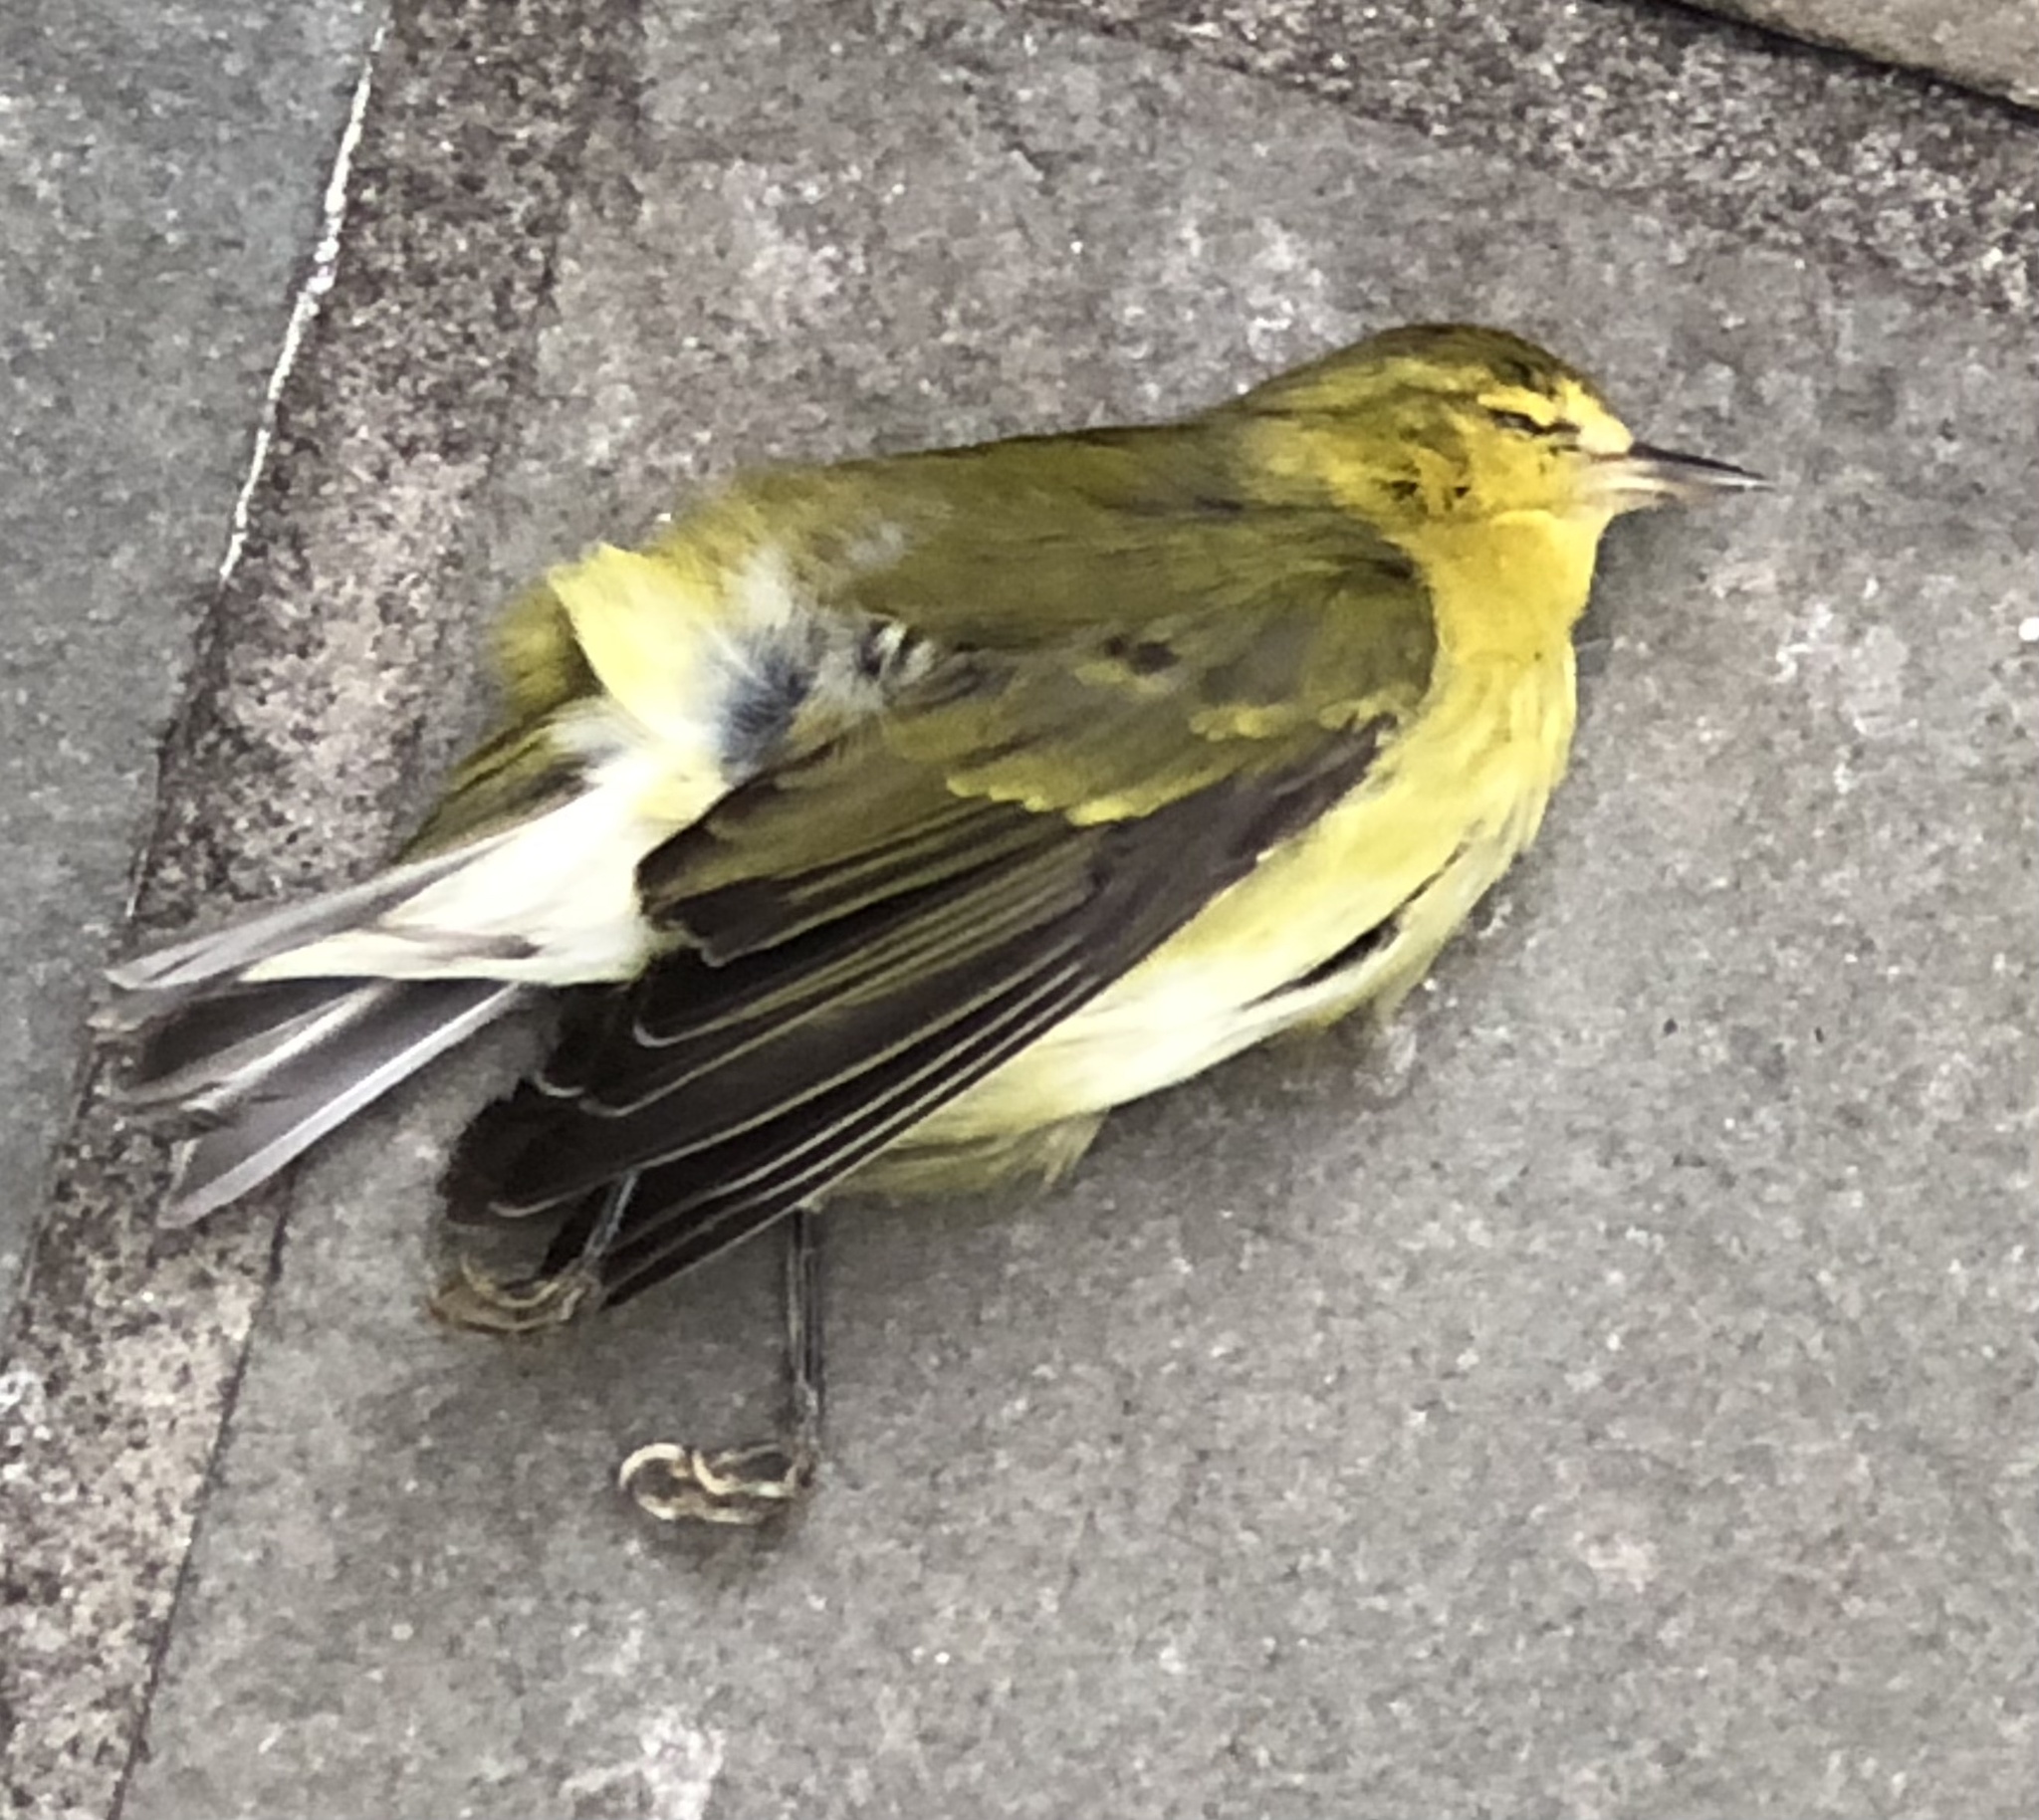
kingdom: Animalia
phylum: Chordata
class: Aves
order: Passeriformes
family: Parulidae
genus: Leiothlypis
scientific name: Leiothlypis peregrina
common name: Tennessee warbler
